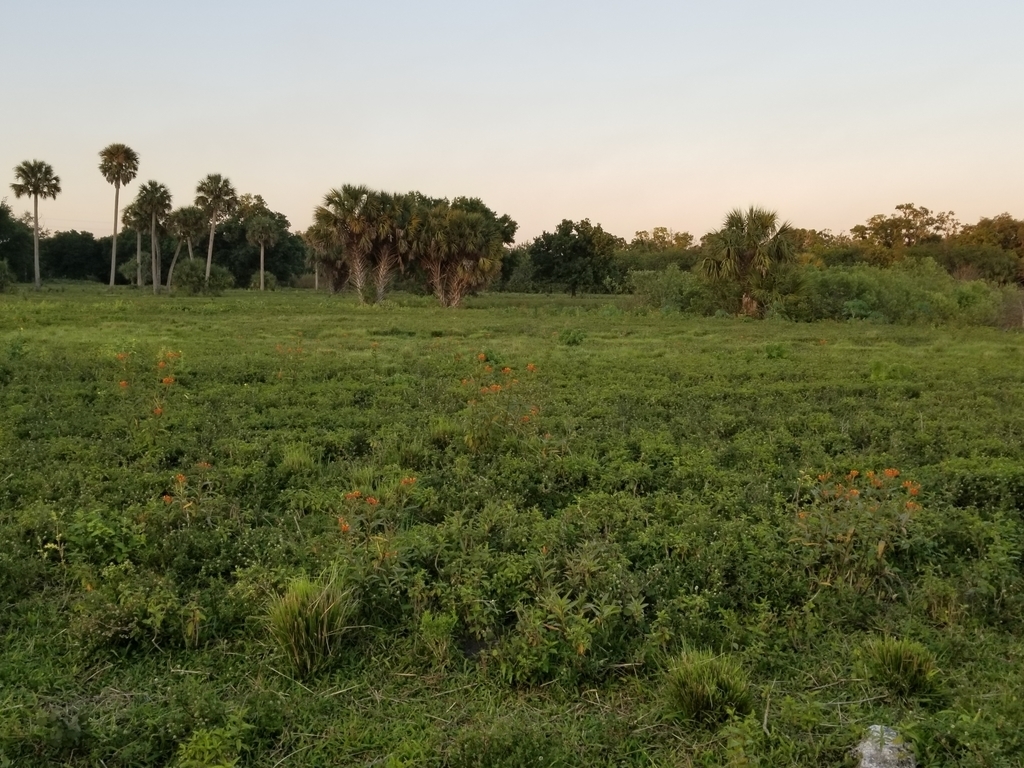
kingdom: Plantae
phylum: Tracheophyta
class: Magnoliopsida
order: Gentianales
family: Apocynaceae
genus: Asclepias
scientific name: Asclepias curassavica
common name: Bloodflower
